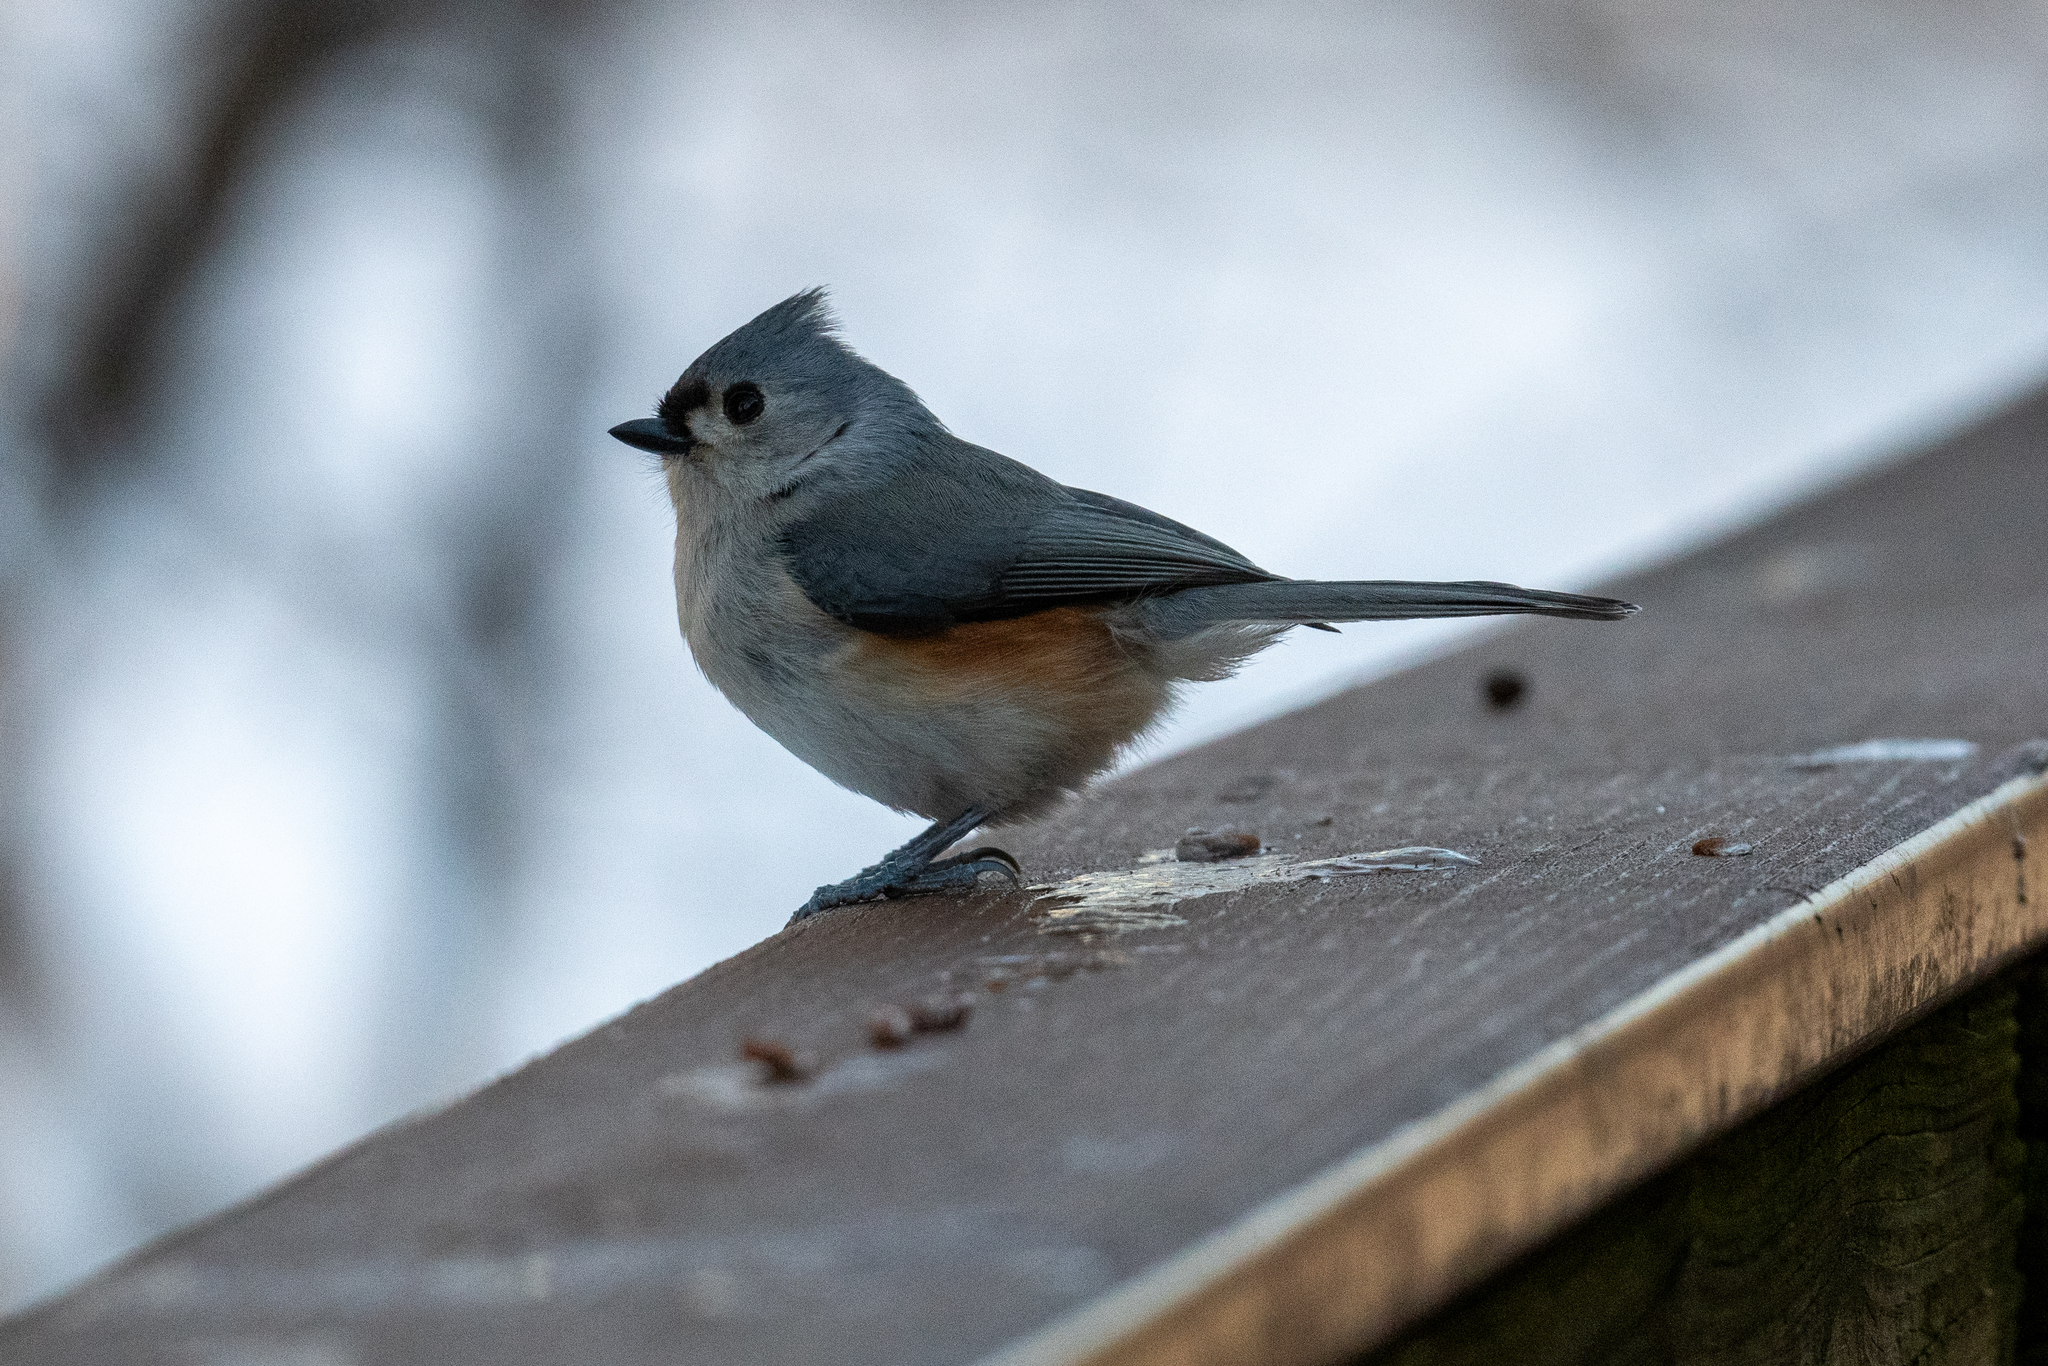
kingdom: Animalia
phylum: Chordata
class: Aves
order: Passeriformes
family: Paridae
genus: Baeolophus
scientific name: Baeolophus bicolor
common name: Tufted titmouse
